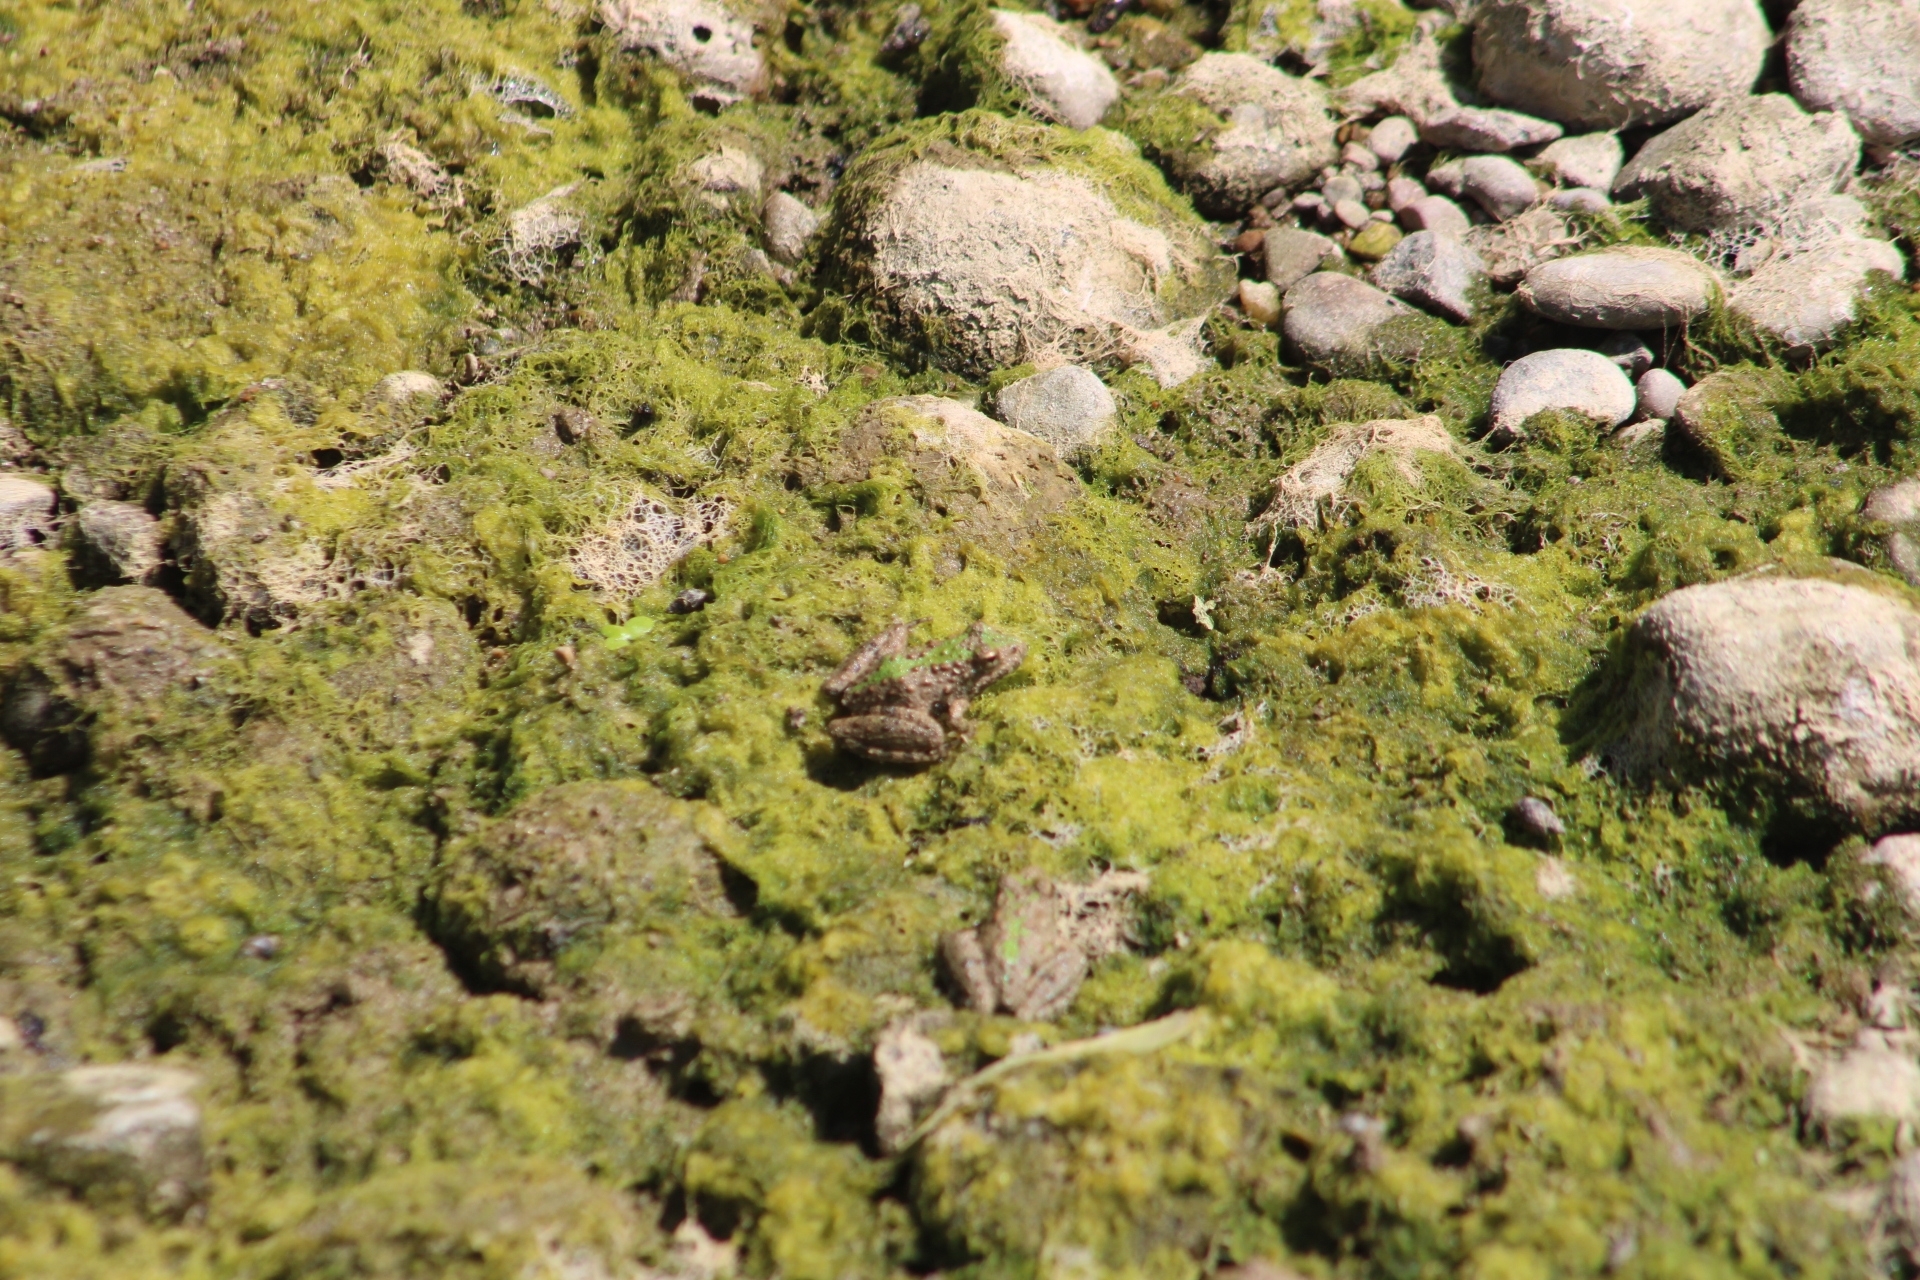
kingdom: Animalia
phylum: Chordata
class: Amphibia
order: Anura
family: Hylidae
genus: Acris
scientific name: Acris blanchardi
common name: Blanchard's cricket frog
